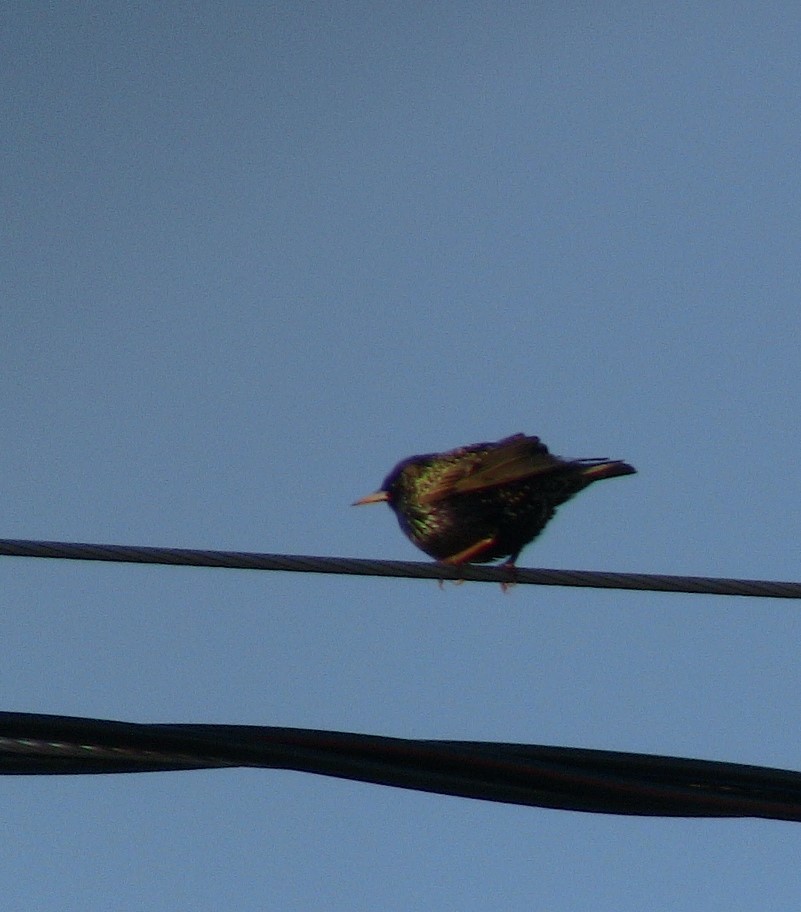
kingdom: Animalia
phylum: Chordata
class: Aves
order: Passeriformes
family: Sturnidae
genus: Sturnus
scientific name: Sturnus vulgaris
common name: Common starling
